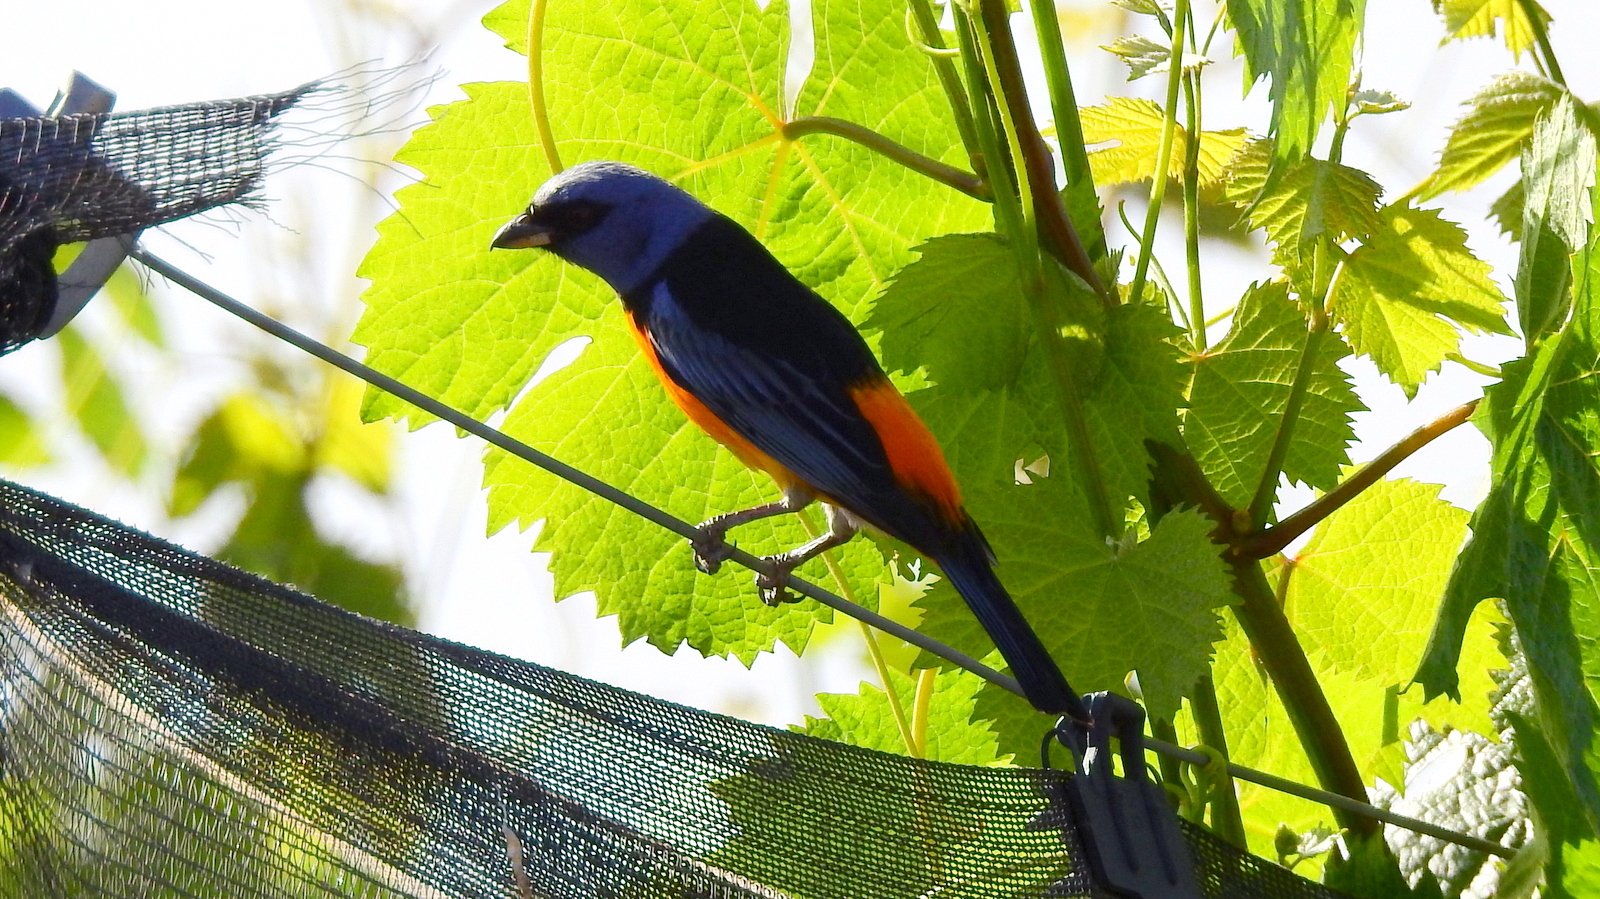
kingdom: Animalia
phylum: Chordata
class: Aves
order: Passeriformes
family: Thraupidae
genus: Rauenia
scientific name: Rauenia bonariensis
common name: Blue-and-yellow tanager
